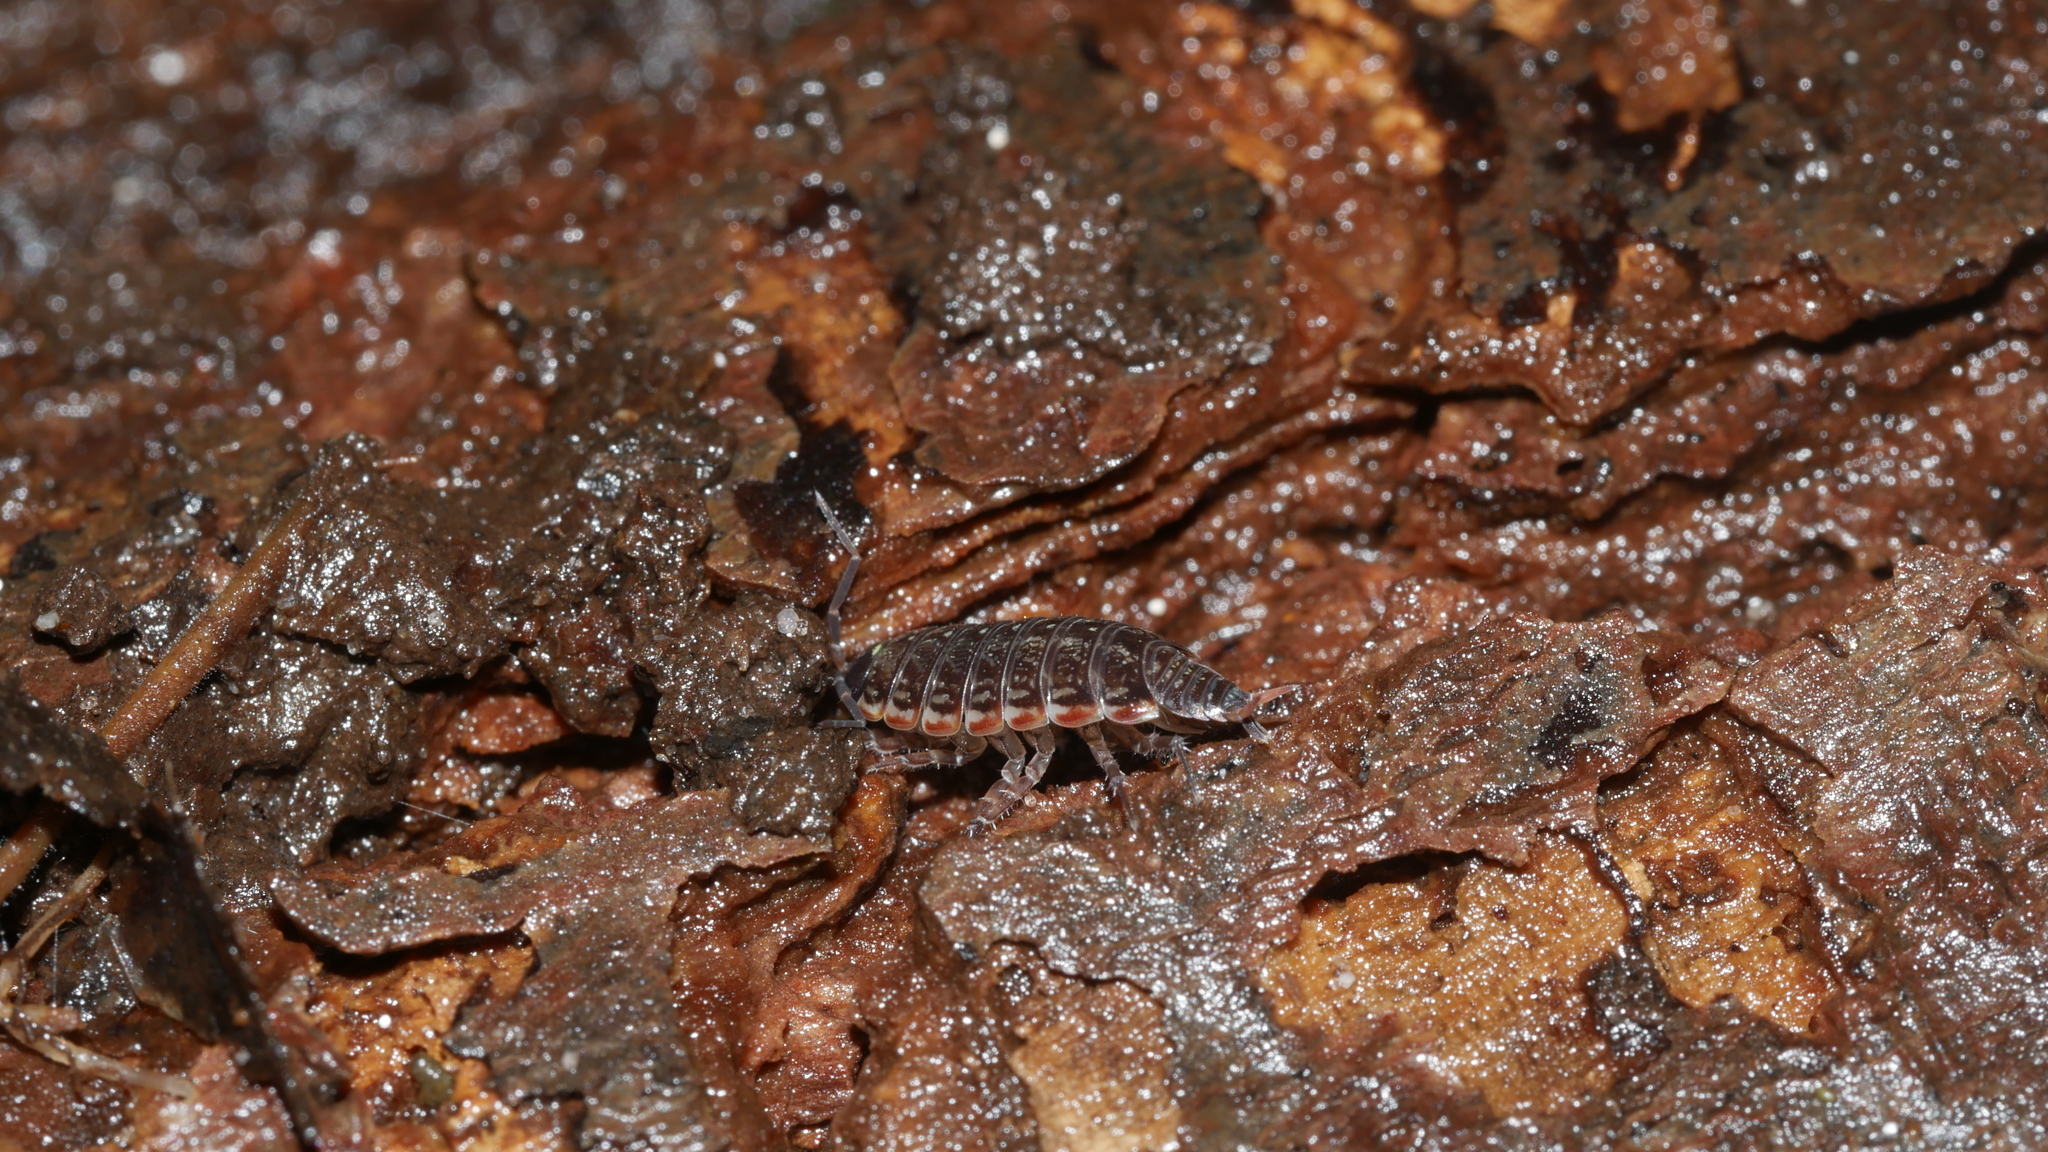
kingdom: Animalia
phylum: Arthropoda
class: Malacostraca
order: Isopoda
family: Philosciidae
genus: Philoscia
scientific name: Philoscia muscorum
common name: Common striped woodlouse
